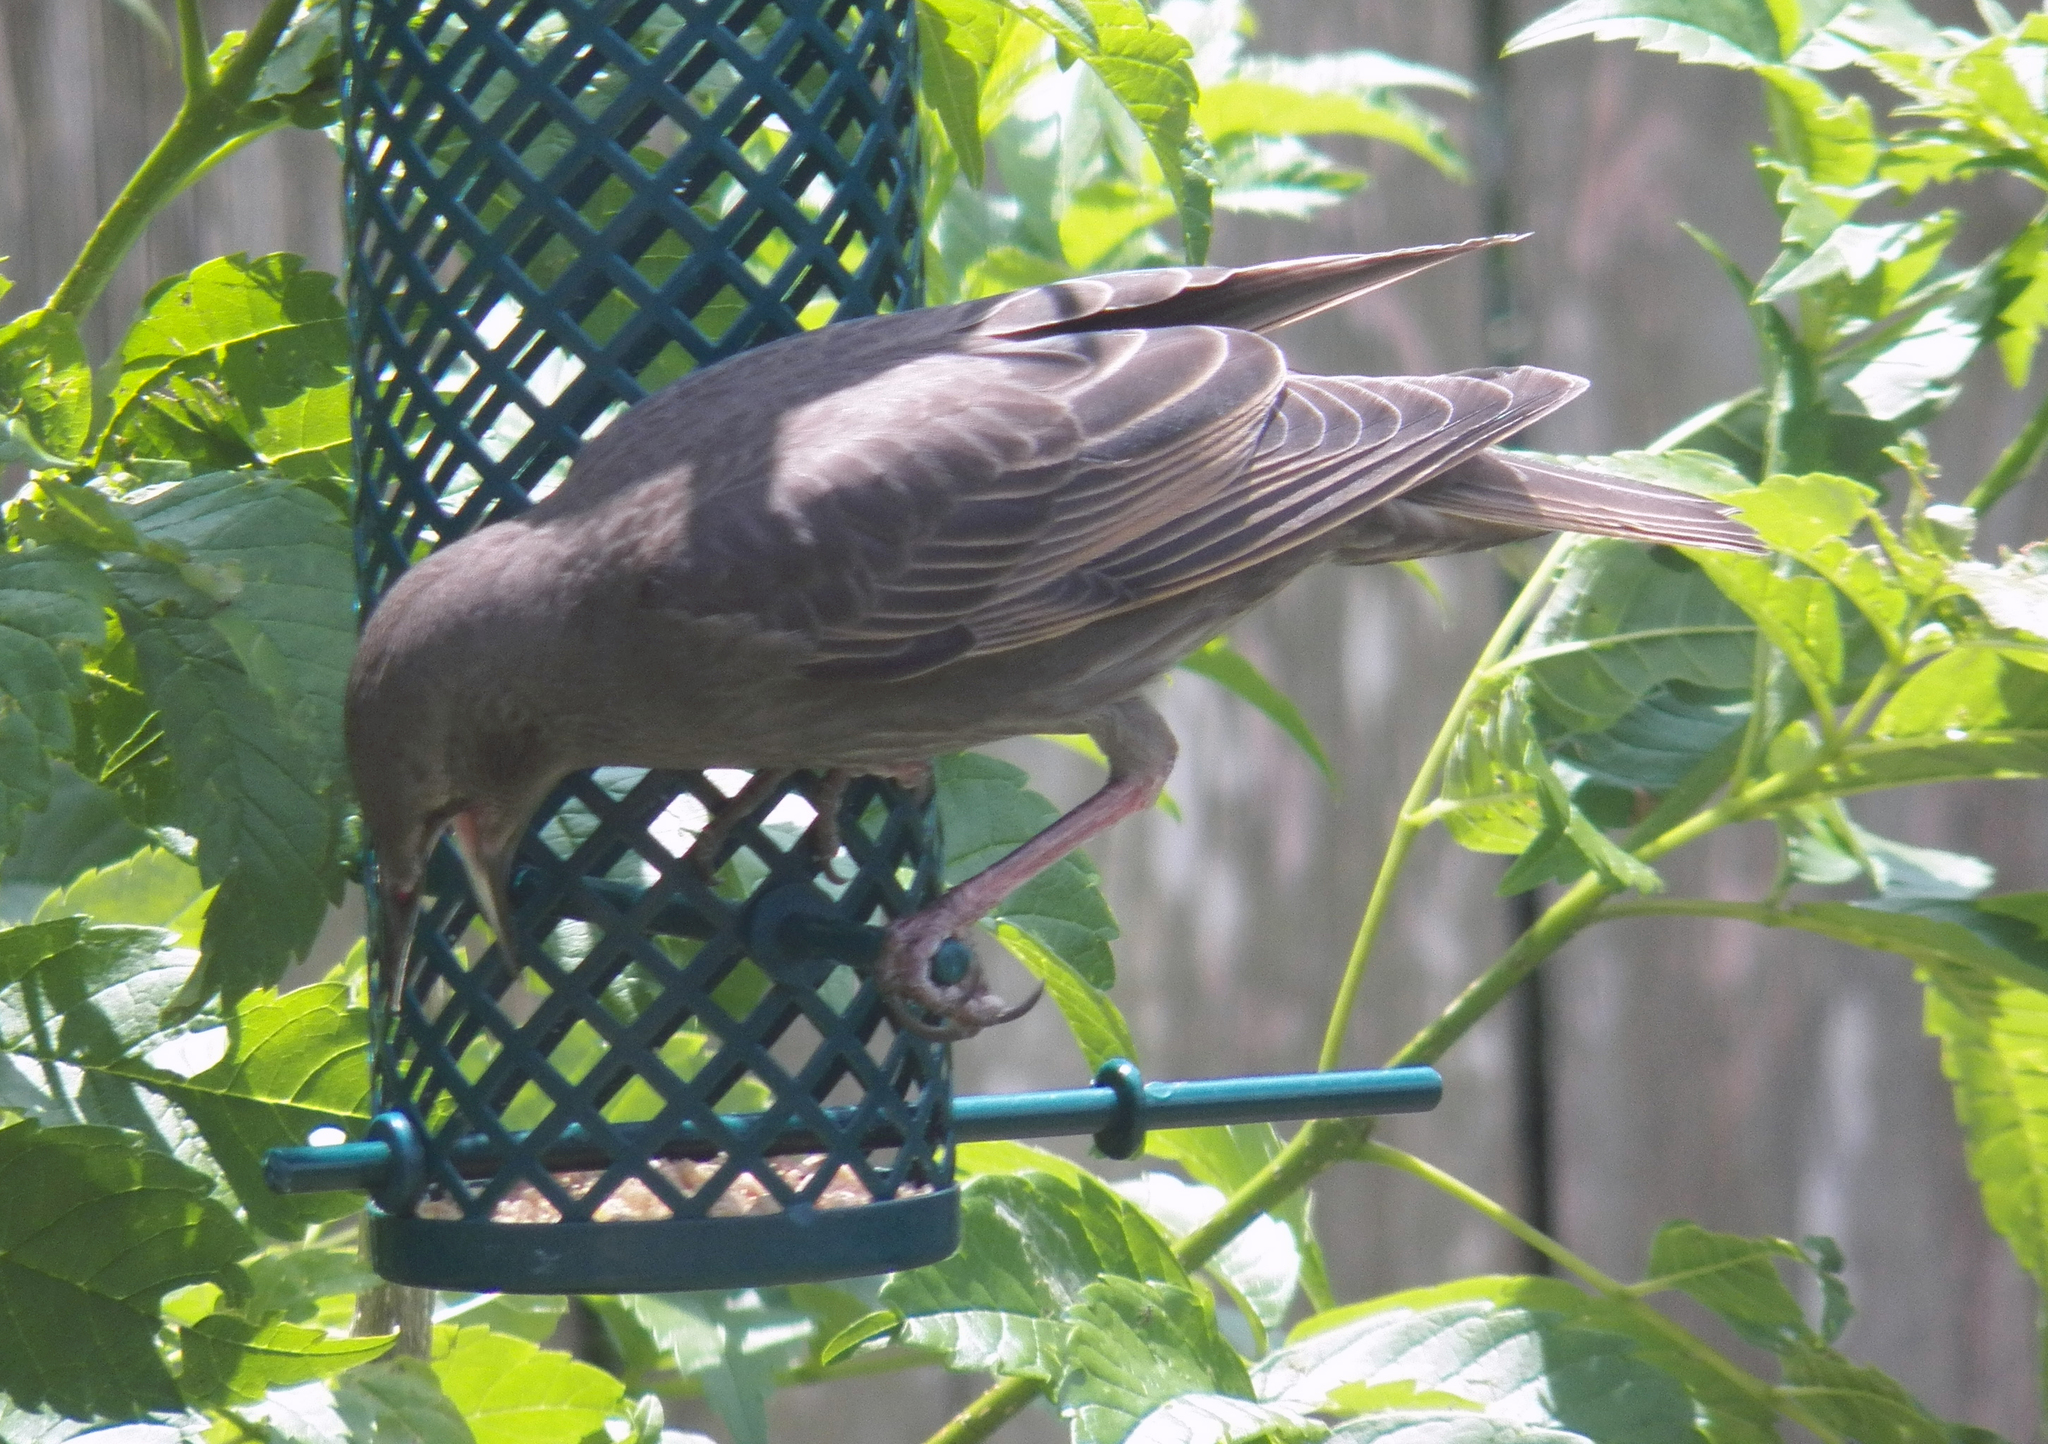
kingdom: Animalia
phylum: Chordata
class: Aves
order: Passeriformes
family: Sturnidae
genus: Sturnus
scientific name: Sturnus vulgaris
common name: Common starling
